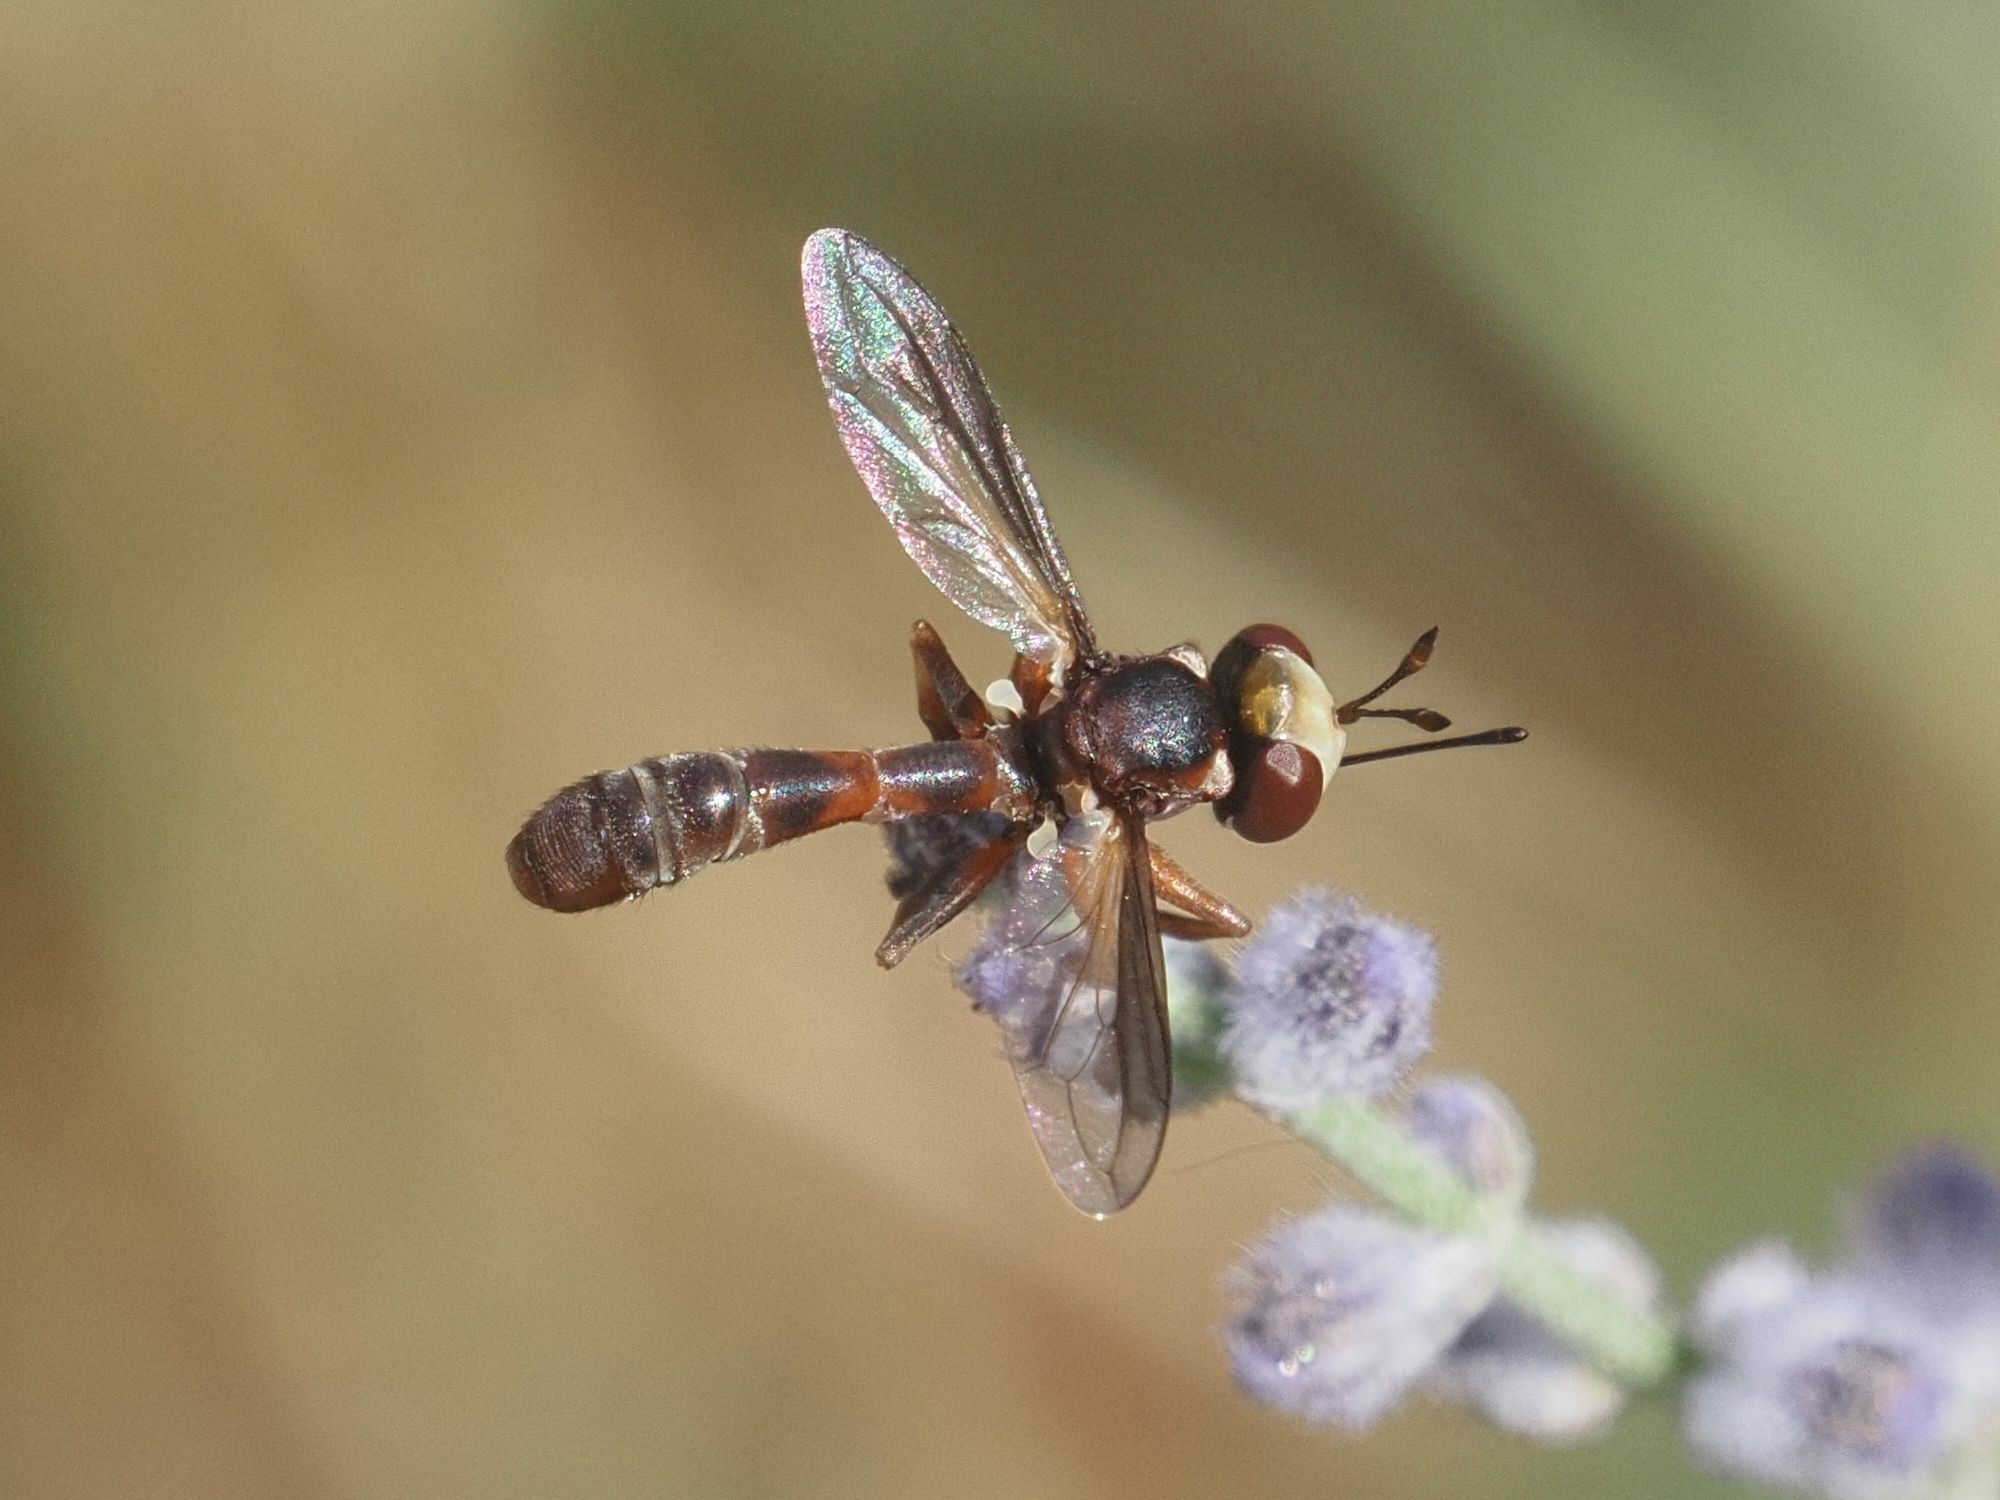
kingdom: Animalia
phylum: Arthropoda
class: Insecta
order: Diptera
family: Conopidae
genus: Physocephala
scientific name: Physocephala vittata
